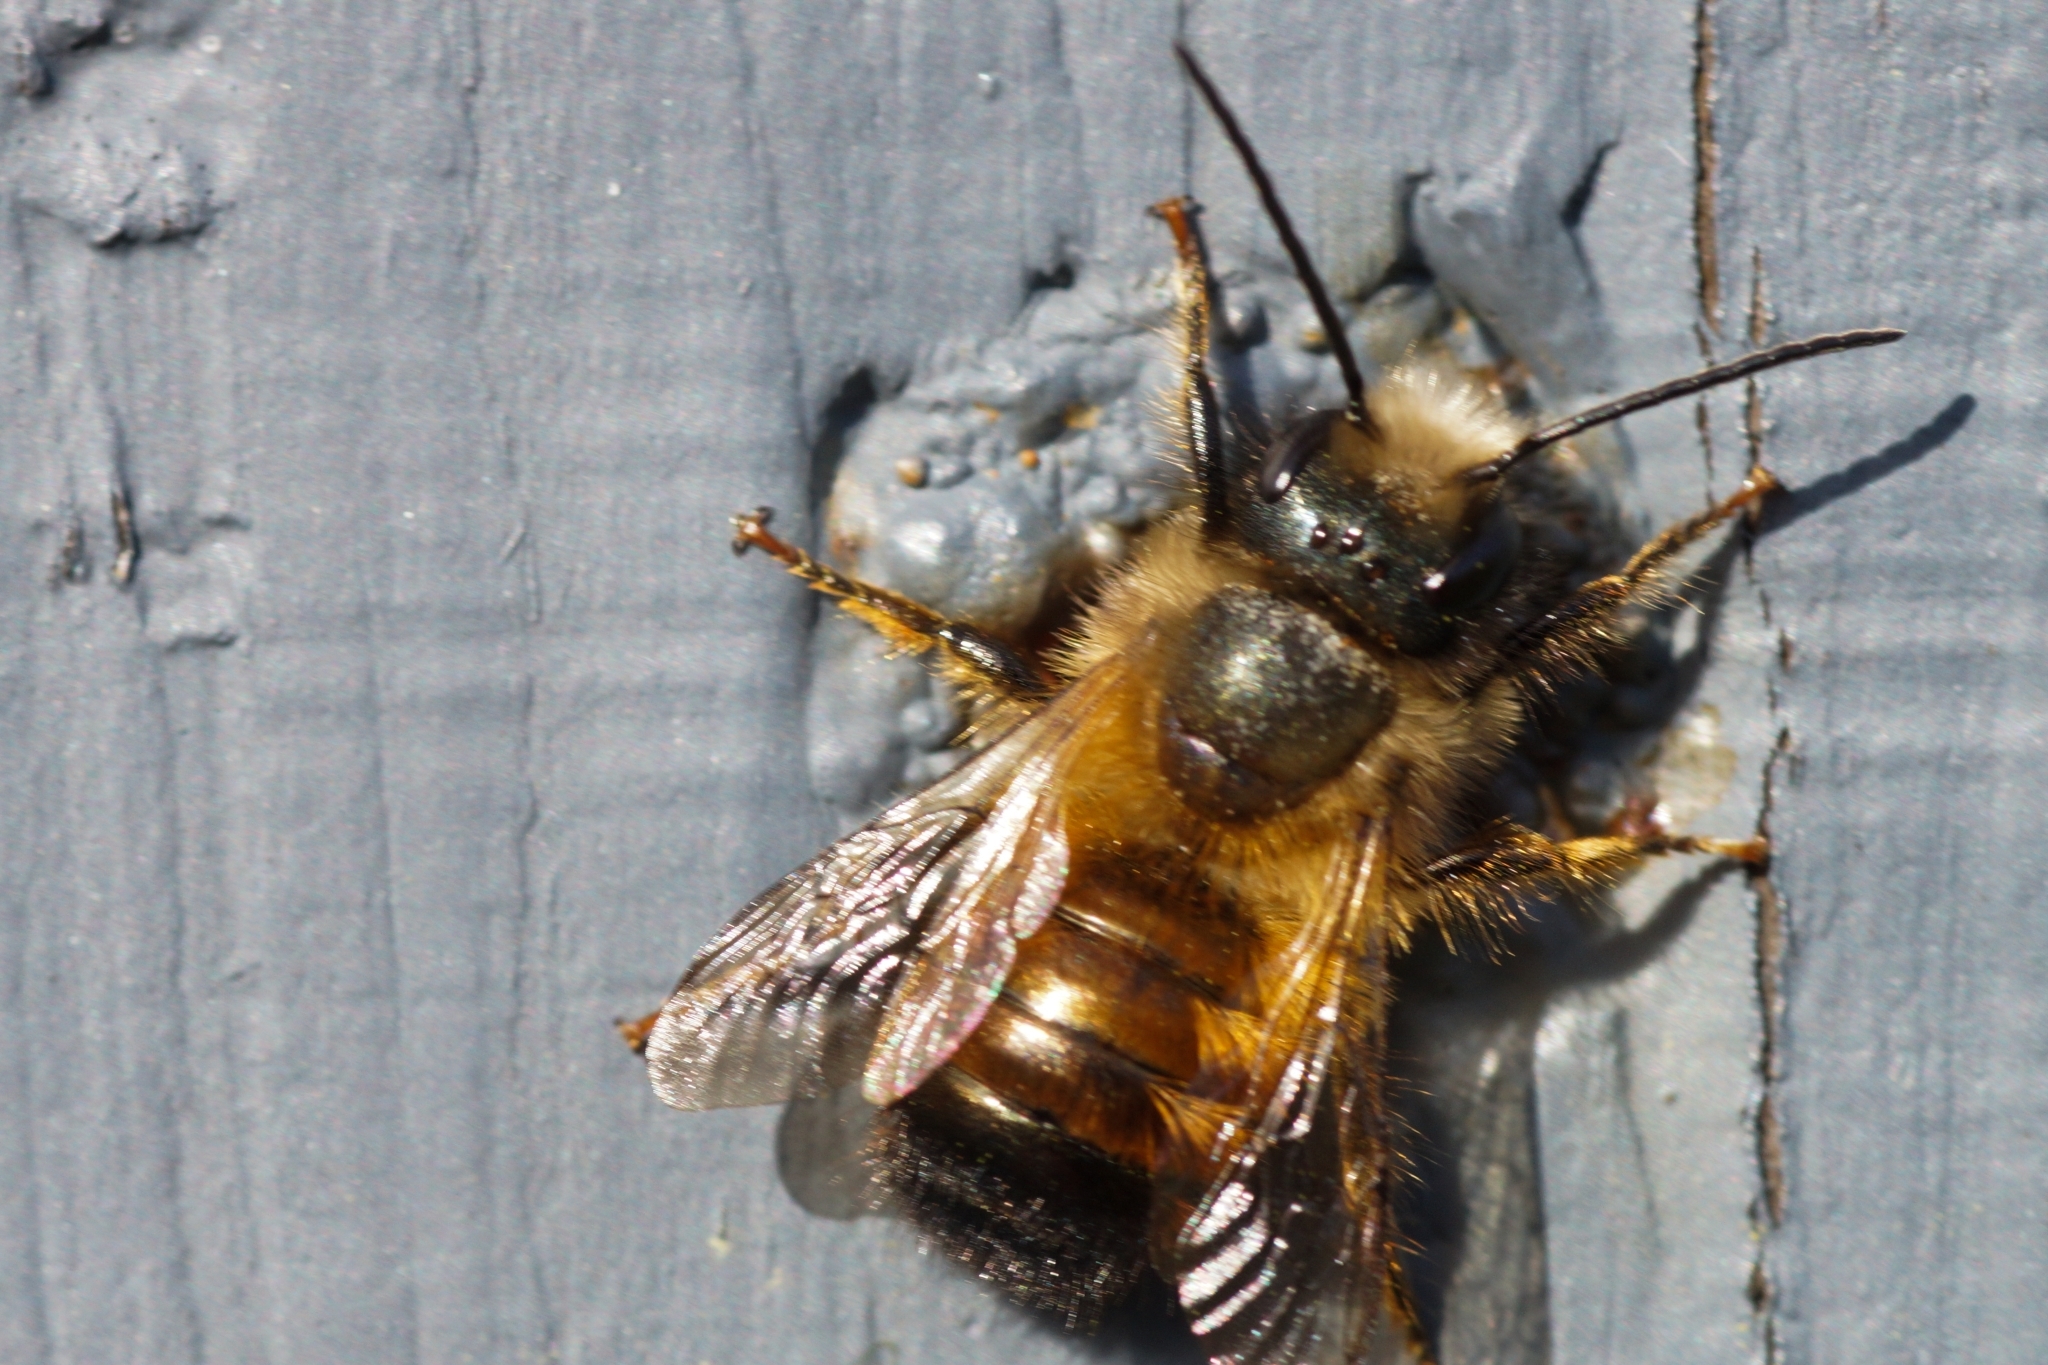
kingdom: Animalia
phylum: Arthropoda
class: Insecta
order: Hymenoptera
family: Megachilidae
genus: Osmia
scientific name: Osmia bicornis
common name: Red mason bee
